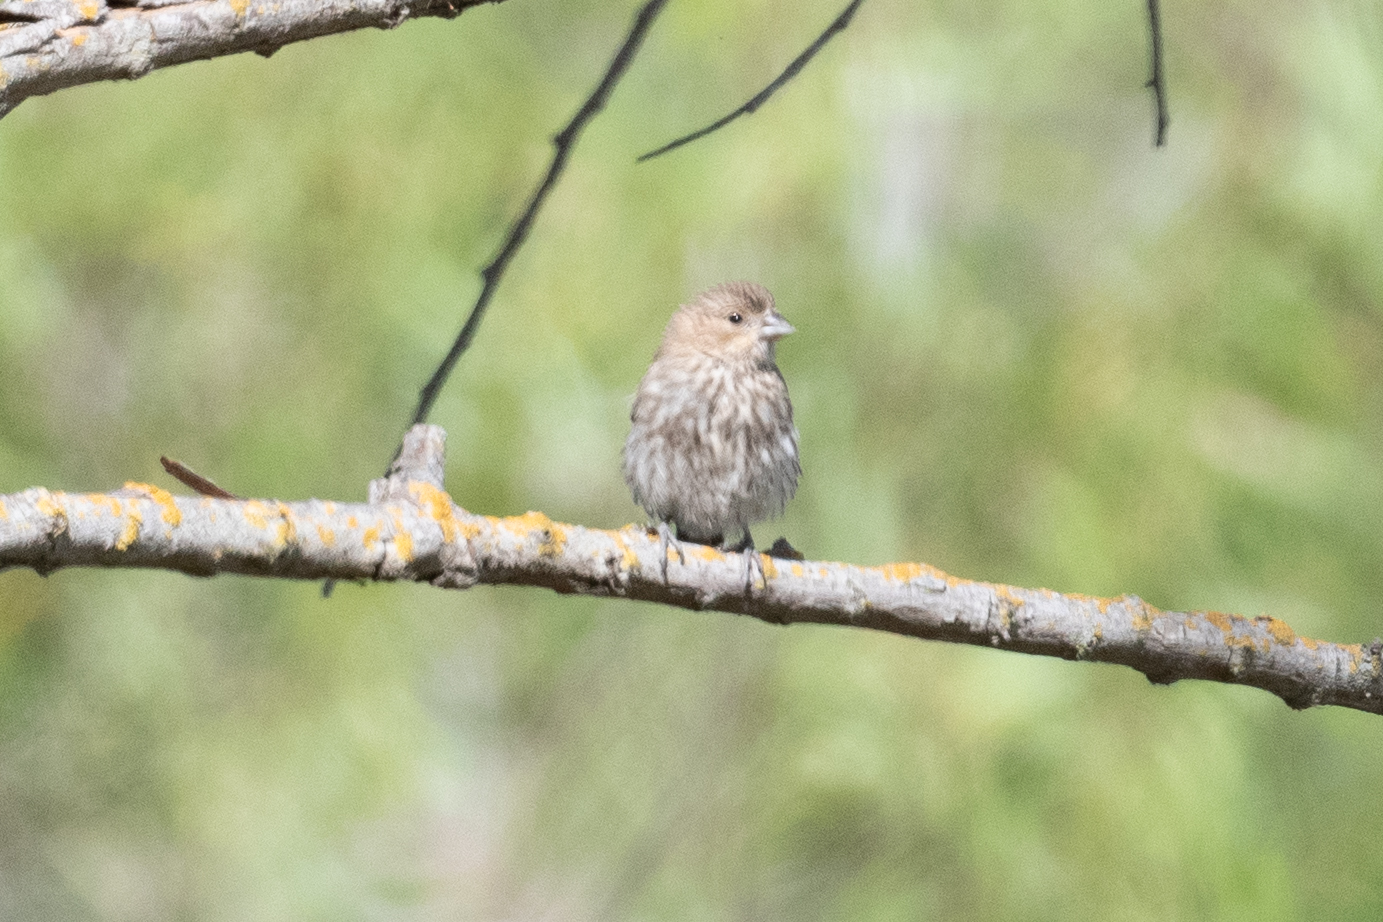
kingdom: Animalia
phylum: Chordata
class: Aves
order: Passeriformes
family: Fringillidae
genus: Haemorhous
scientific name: Haemorhous mexicanus
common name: House finch
